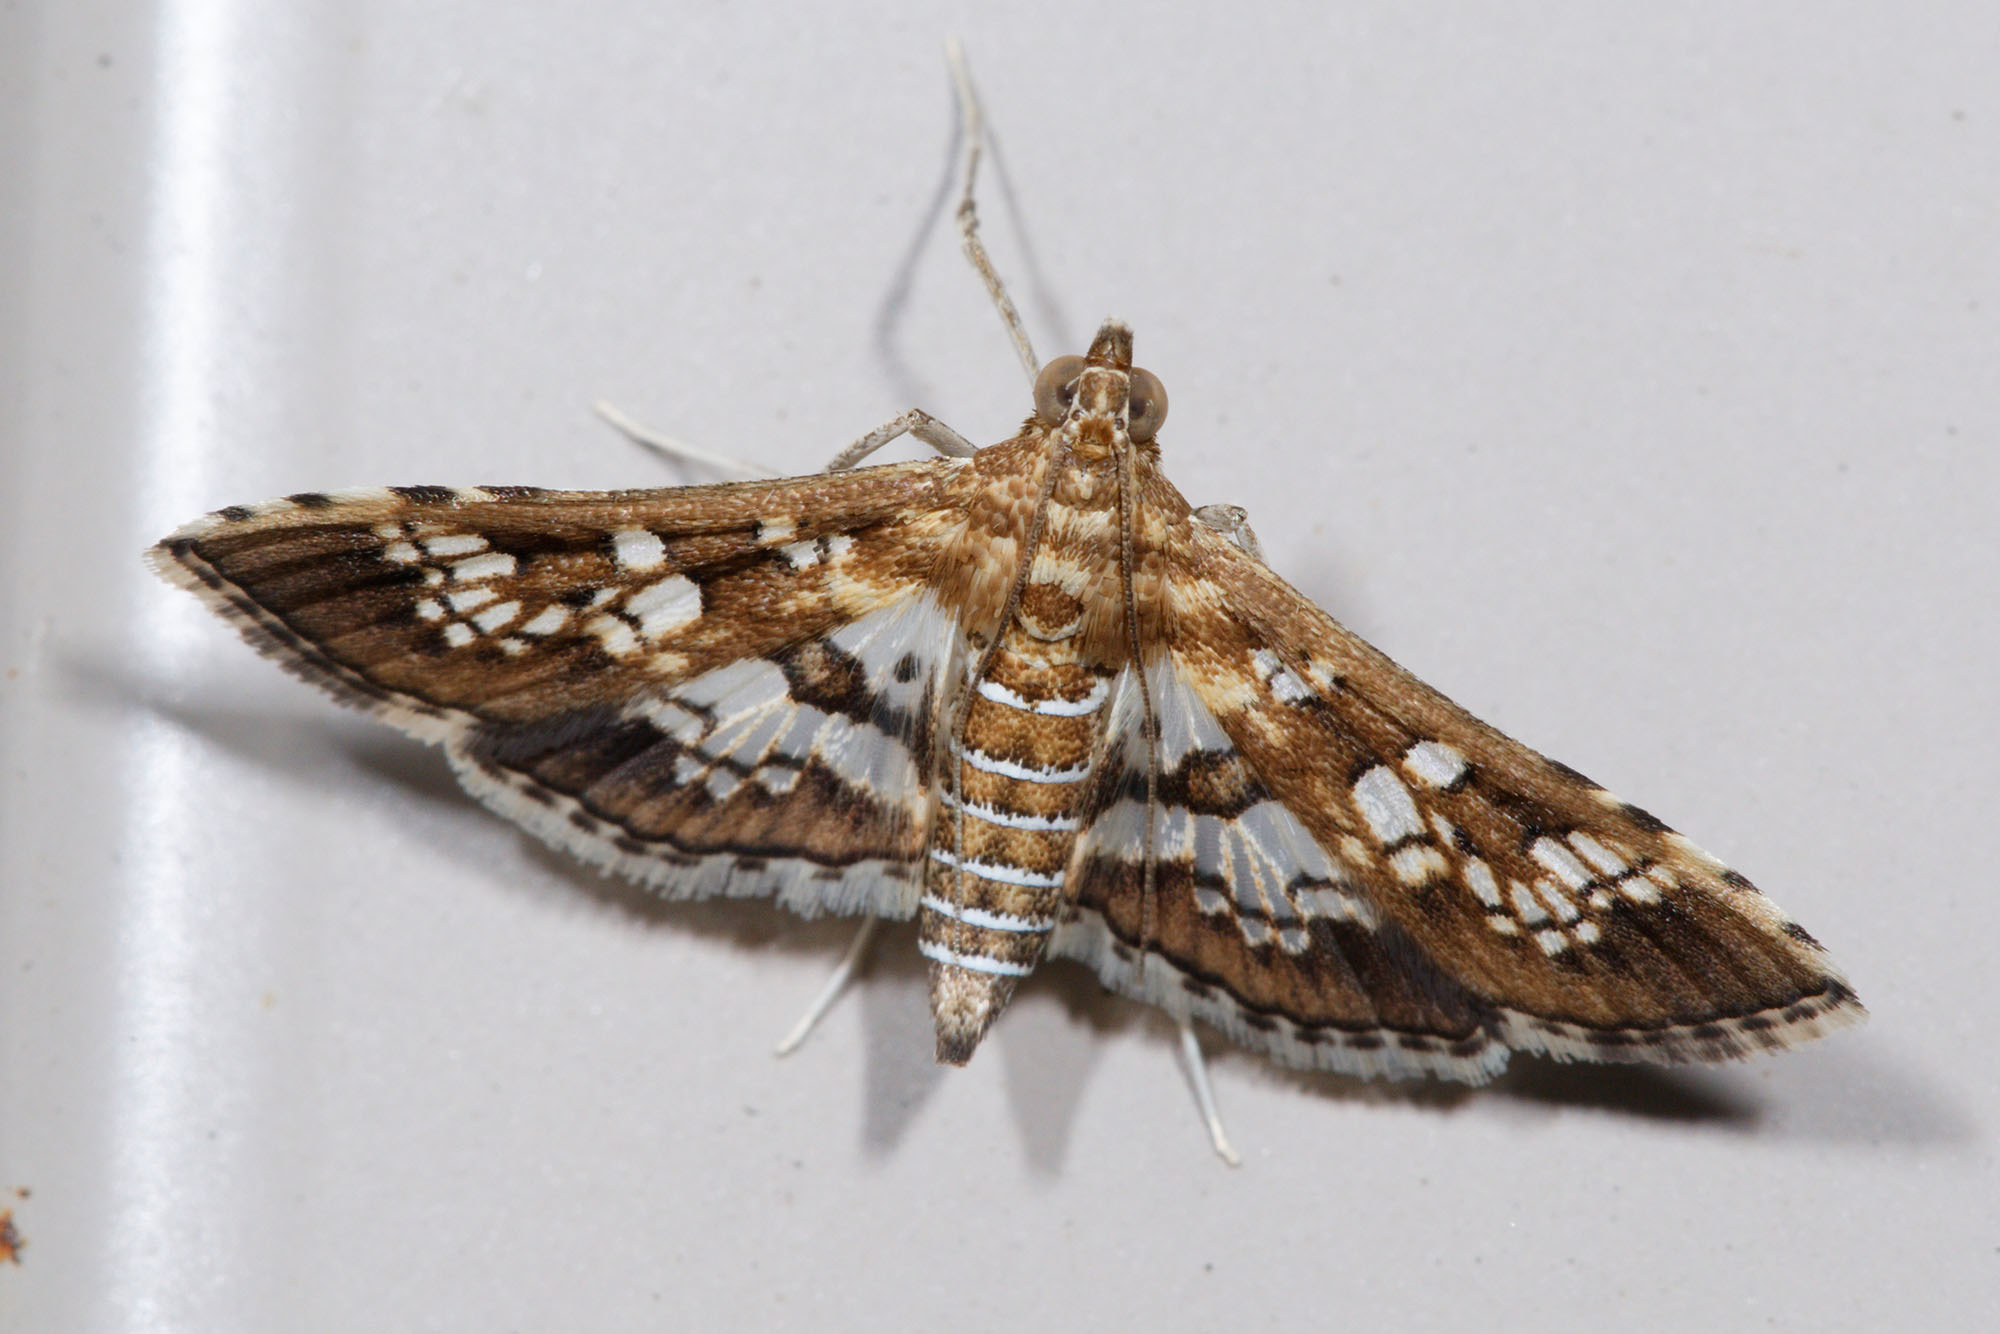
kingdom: Animalia
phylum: Arthropoda
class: Insecta
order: Lepidoptera
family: Crambidae
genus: Sameodes
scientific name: Sameodes cancellalis
